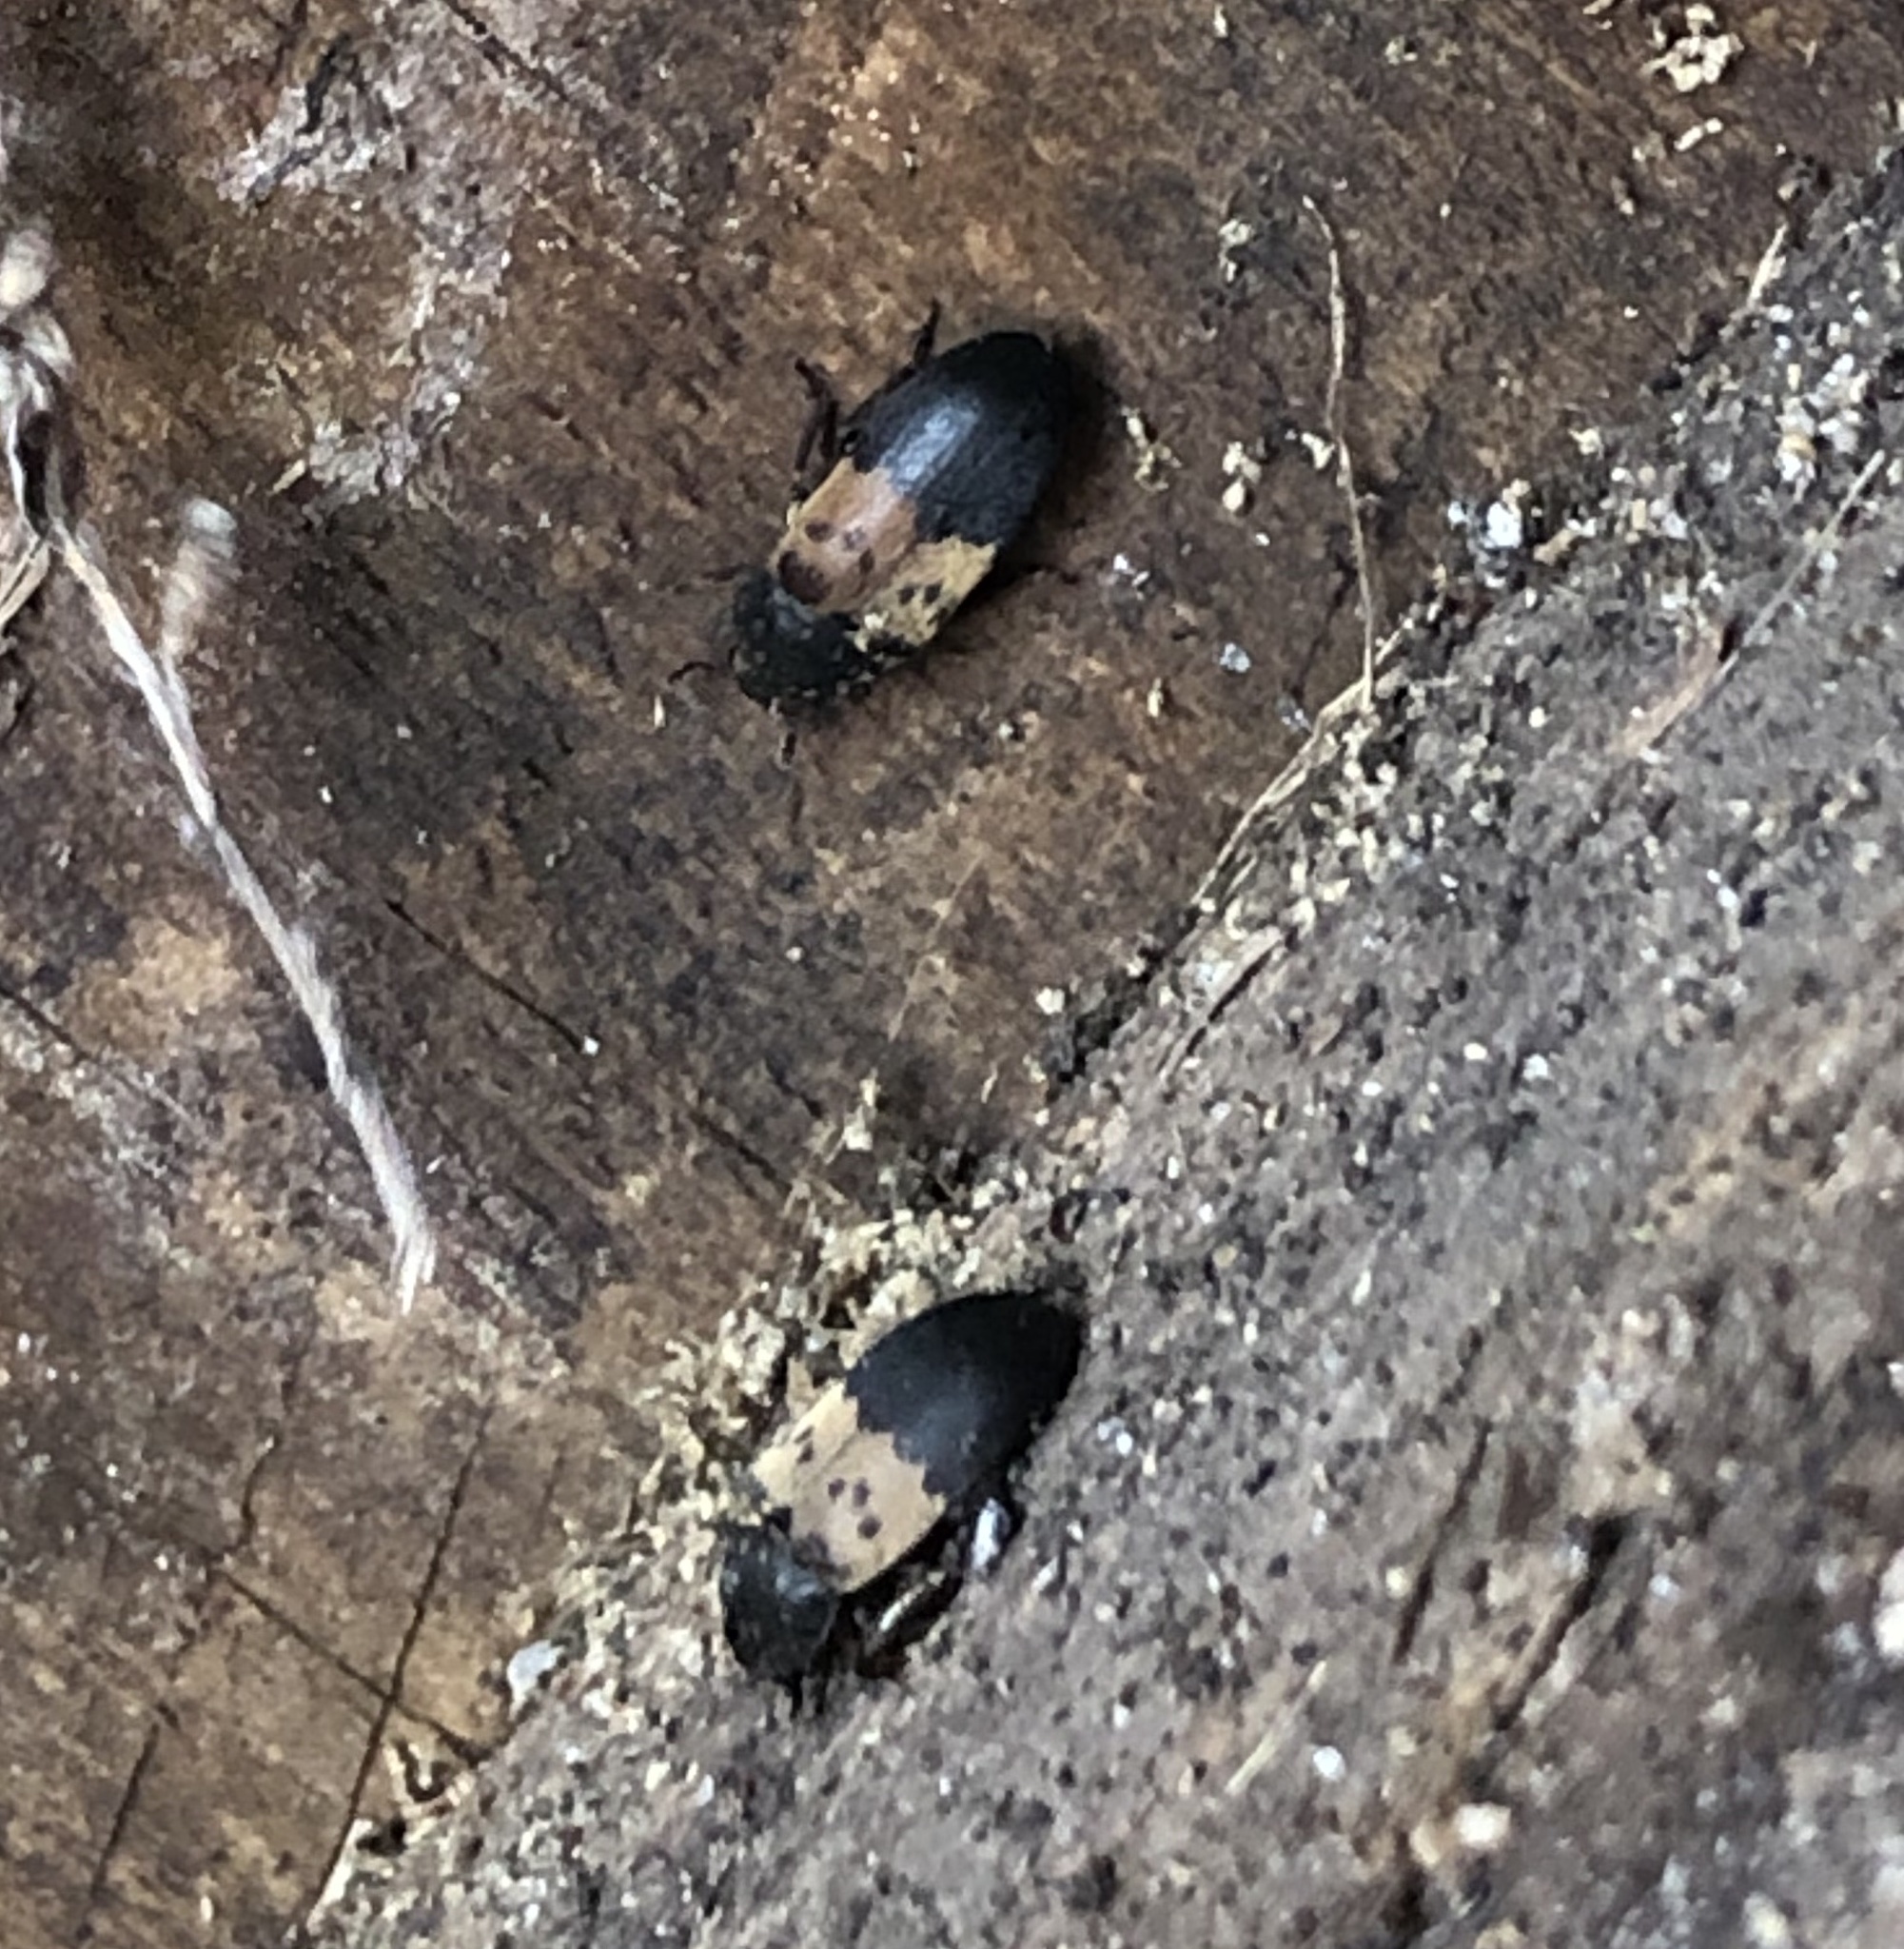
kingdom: Animalia
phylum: Arthropoda
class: Insecta
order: Coleoptera
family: Dermestidae
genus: Dermestes
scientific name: Dermestes lardarius
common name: Larder beetle
